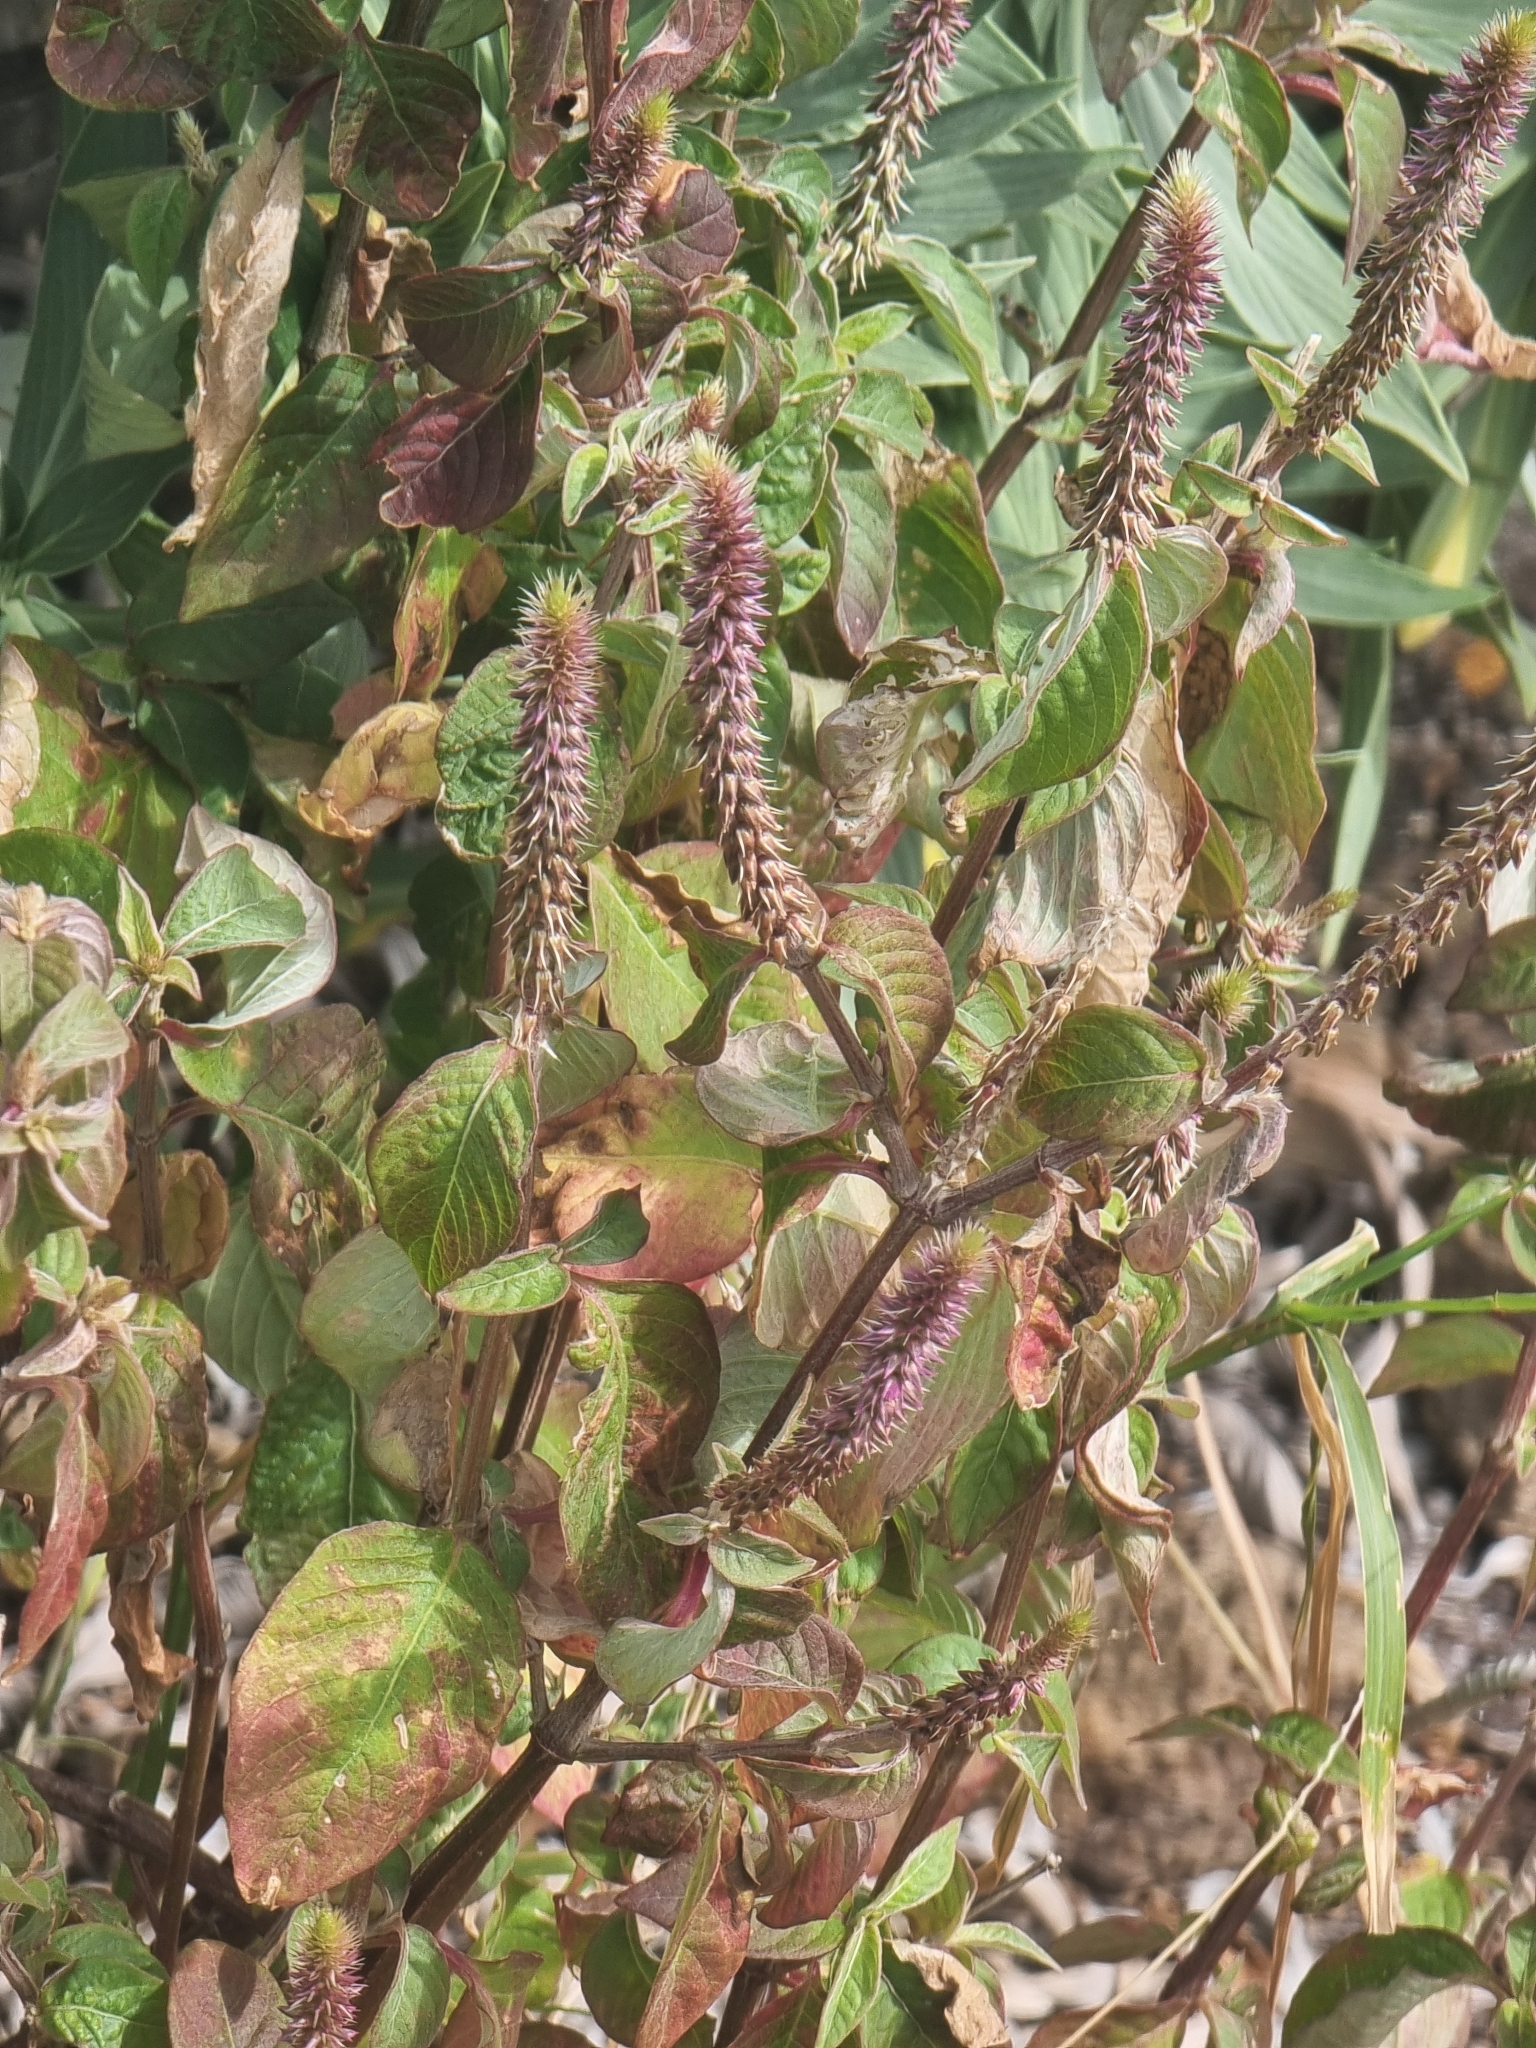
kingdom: Plantae
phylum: Tracheophyta
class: Magnoliopsida
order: Caryophyllales
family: Amaranthaceae
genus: Achyranthes
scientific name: Achyranthes aspera
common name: Devil's horsewhip
